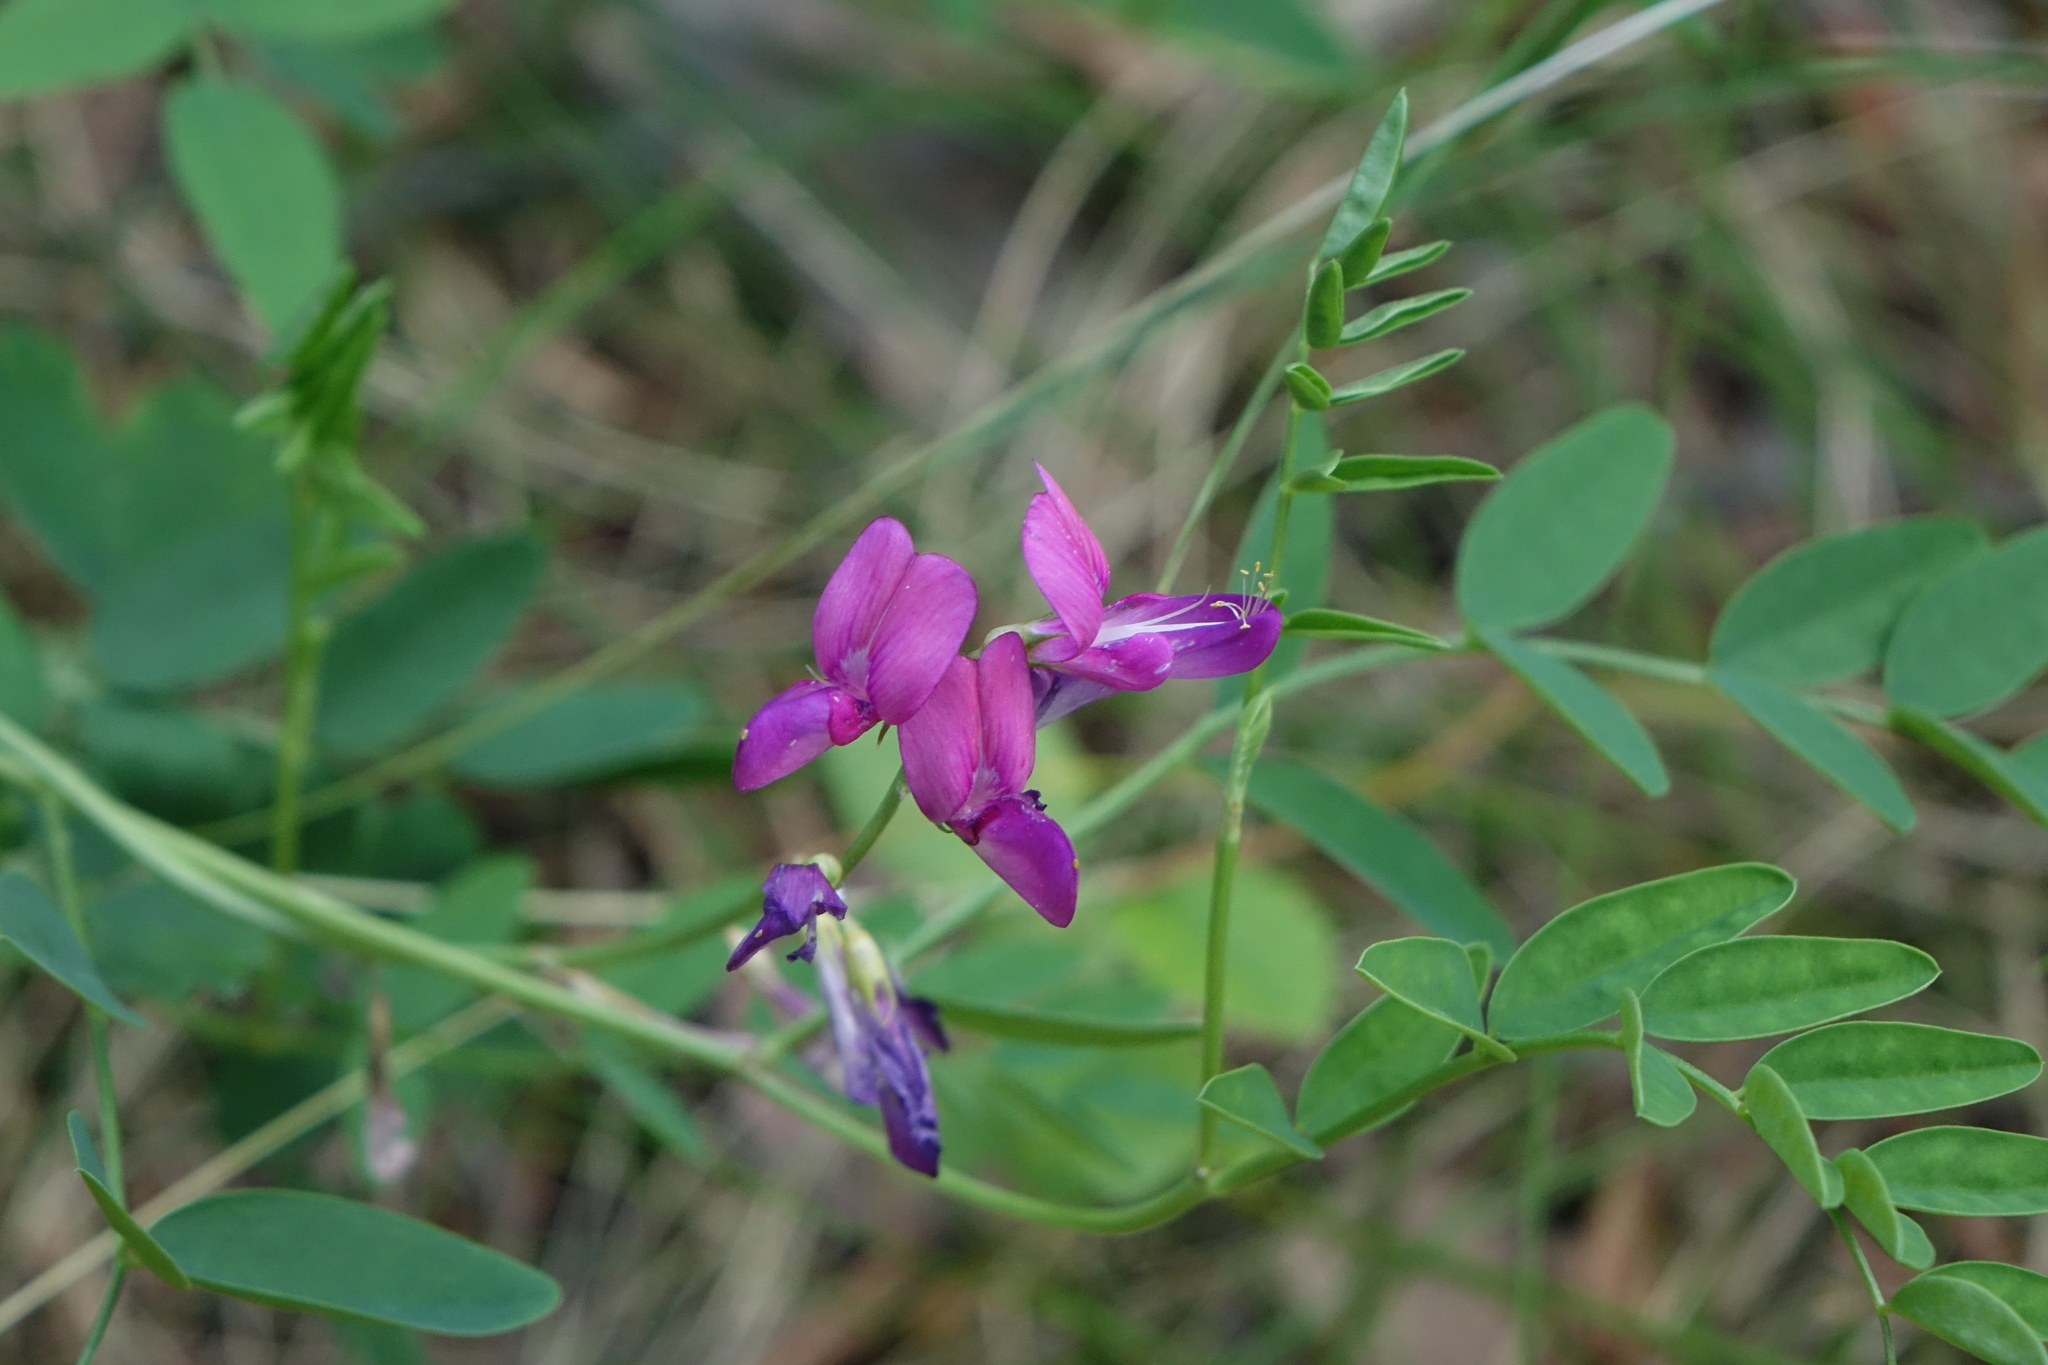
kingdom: Plantae
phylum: Tracheophyta
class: Magnoliopsida
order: Fabales
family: Fabaceae
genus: Lathyrus
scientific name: Lathyrus humilis
